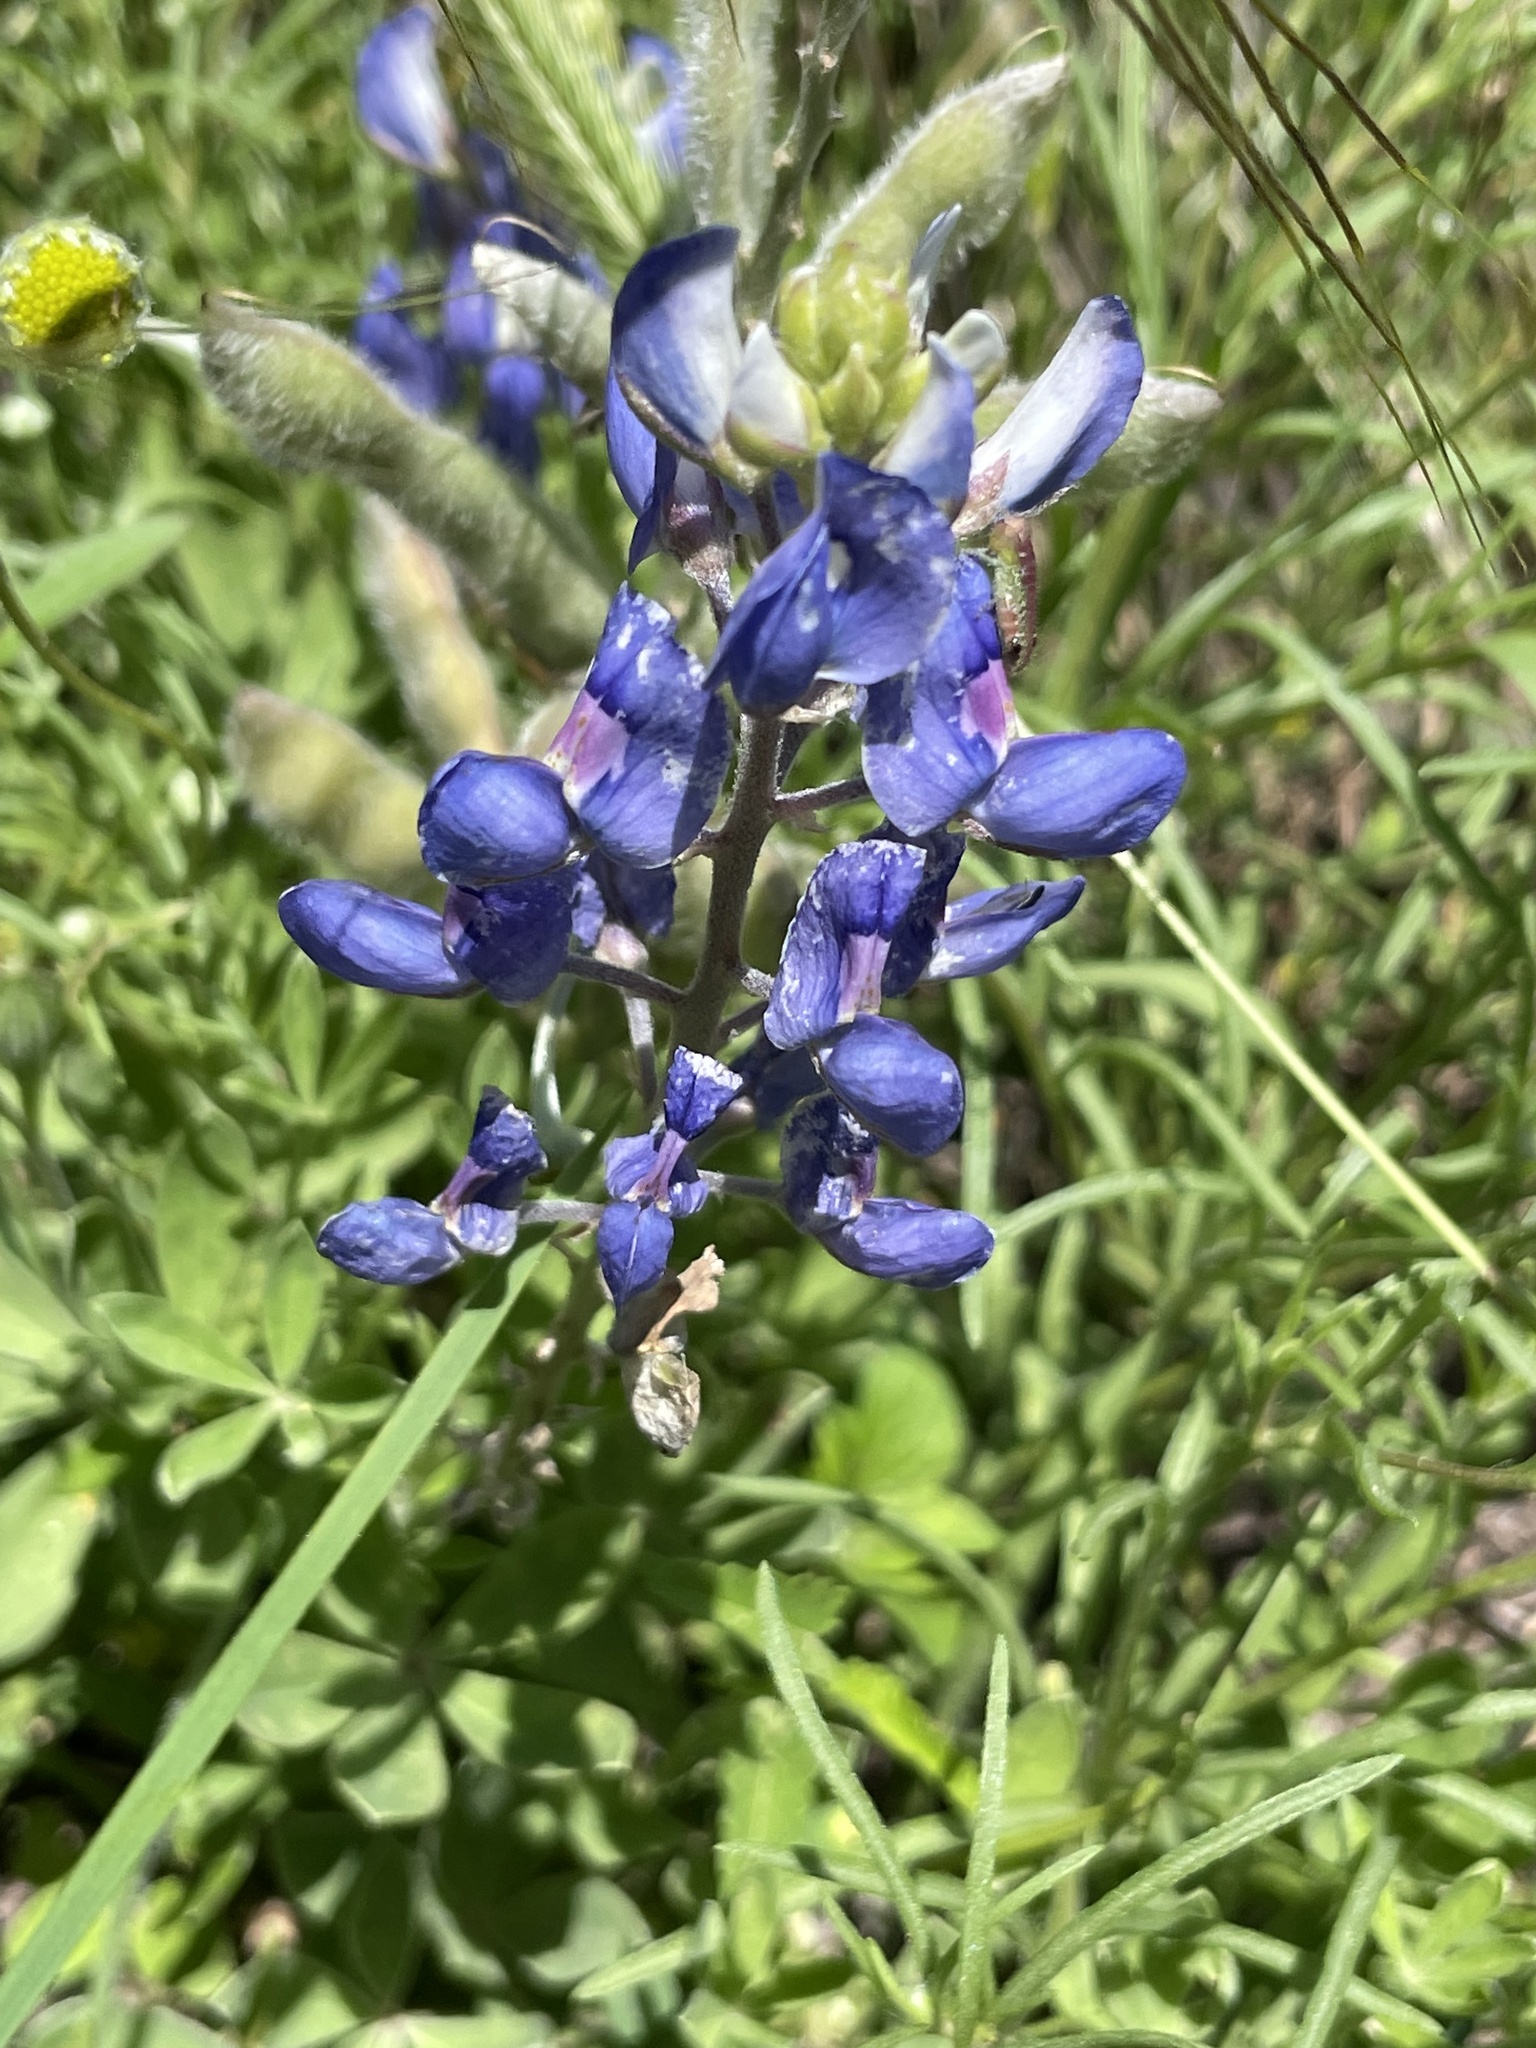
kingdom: Plantae
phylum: Tracheophyta
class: Magnoliopsida
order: Fabales
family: Fabaceae
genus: Lupinus
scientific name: Lupinus texensis
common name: Texas bluebonnet
